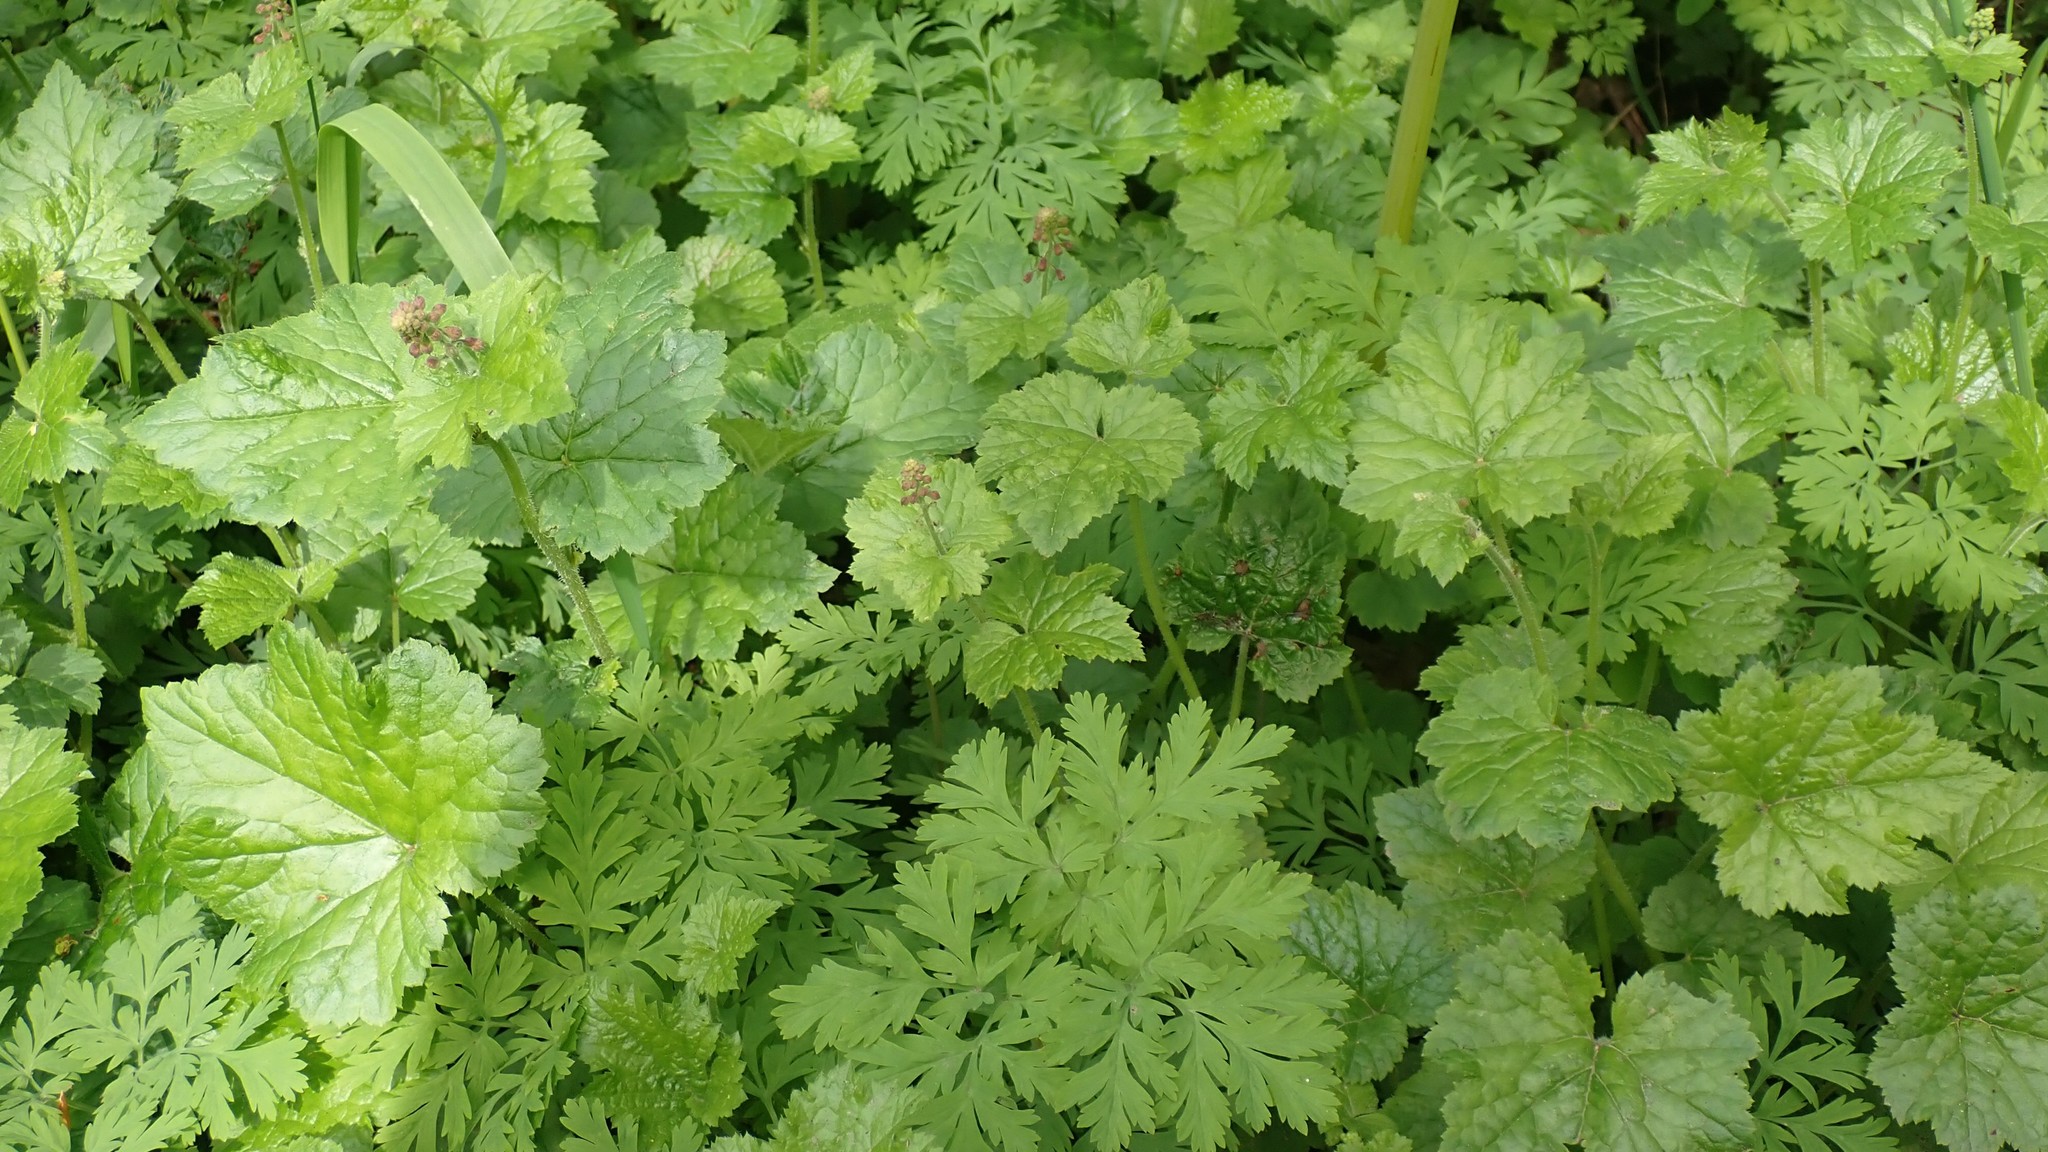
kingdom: Plantae
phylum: Tracheophyta
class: Magnoliopsida
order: Saxifragales
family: Saxifragaceae
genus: Tolmiea
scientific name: Tolmiea menziesii
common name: Pick-a-back-plant
